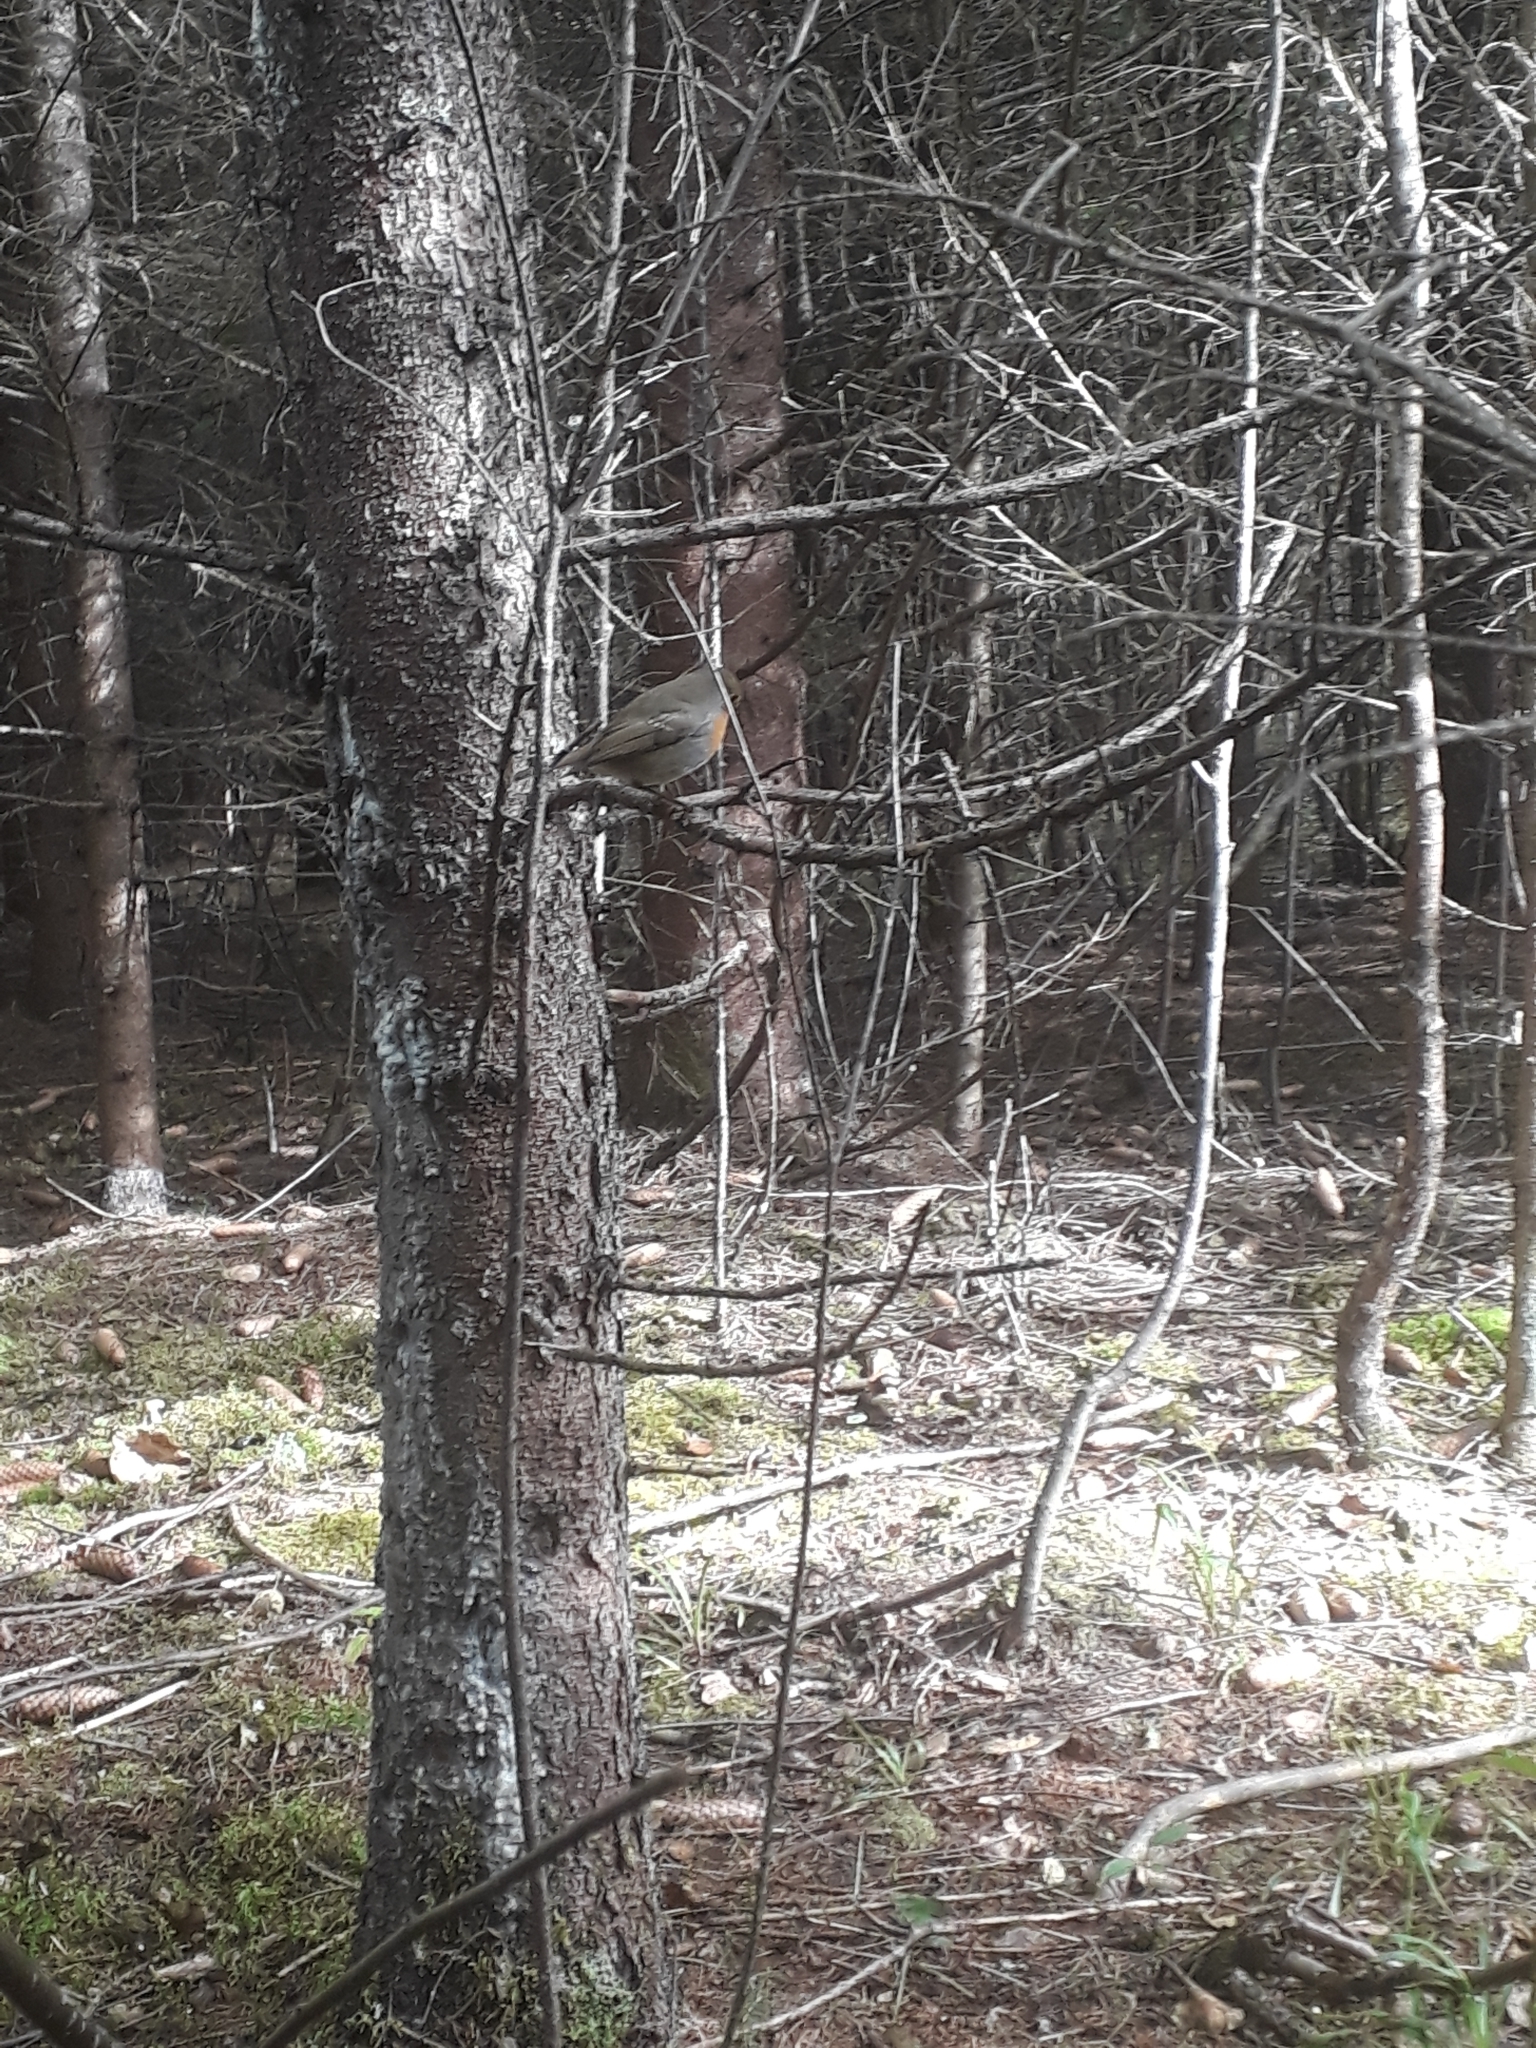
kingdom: Animalia
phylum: Chordata
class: Aves
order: Passeriformes
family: Muscicapidae
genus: Erithacus
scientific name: Erithacus rubecula
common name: European robin
